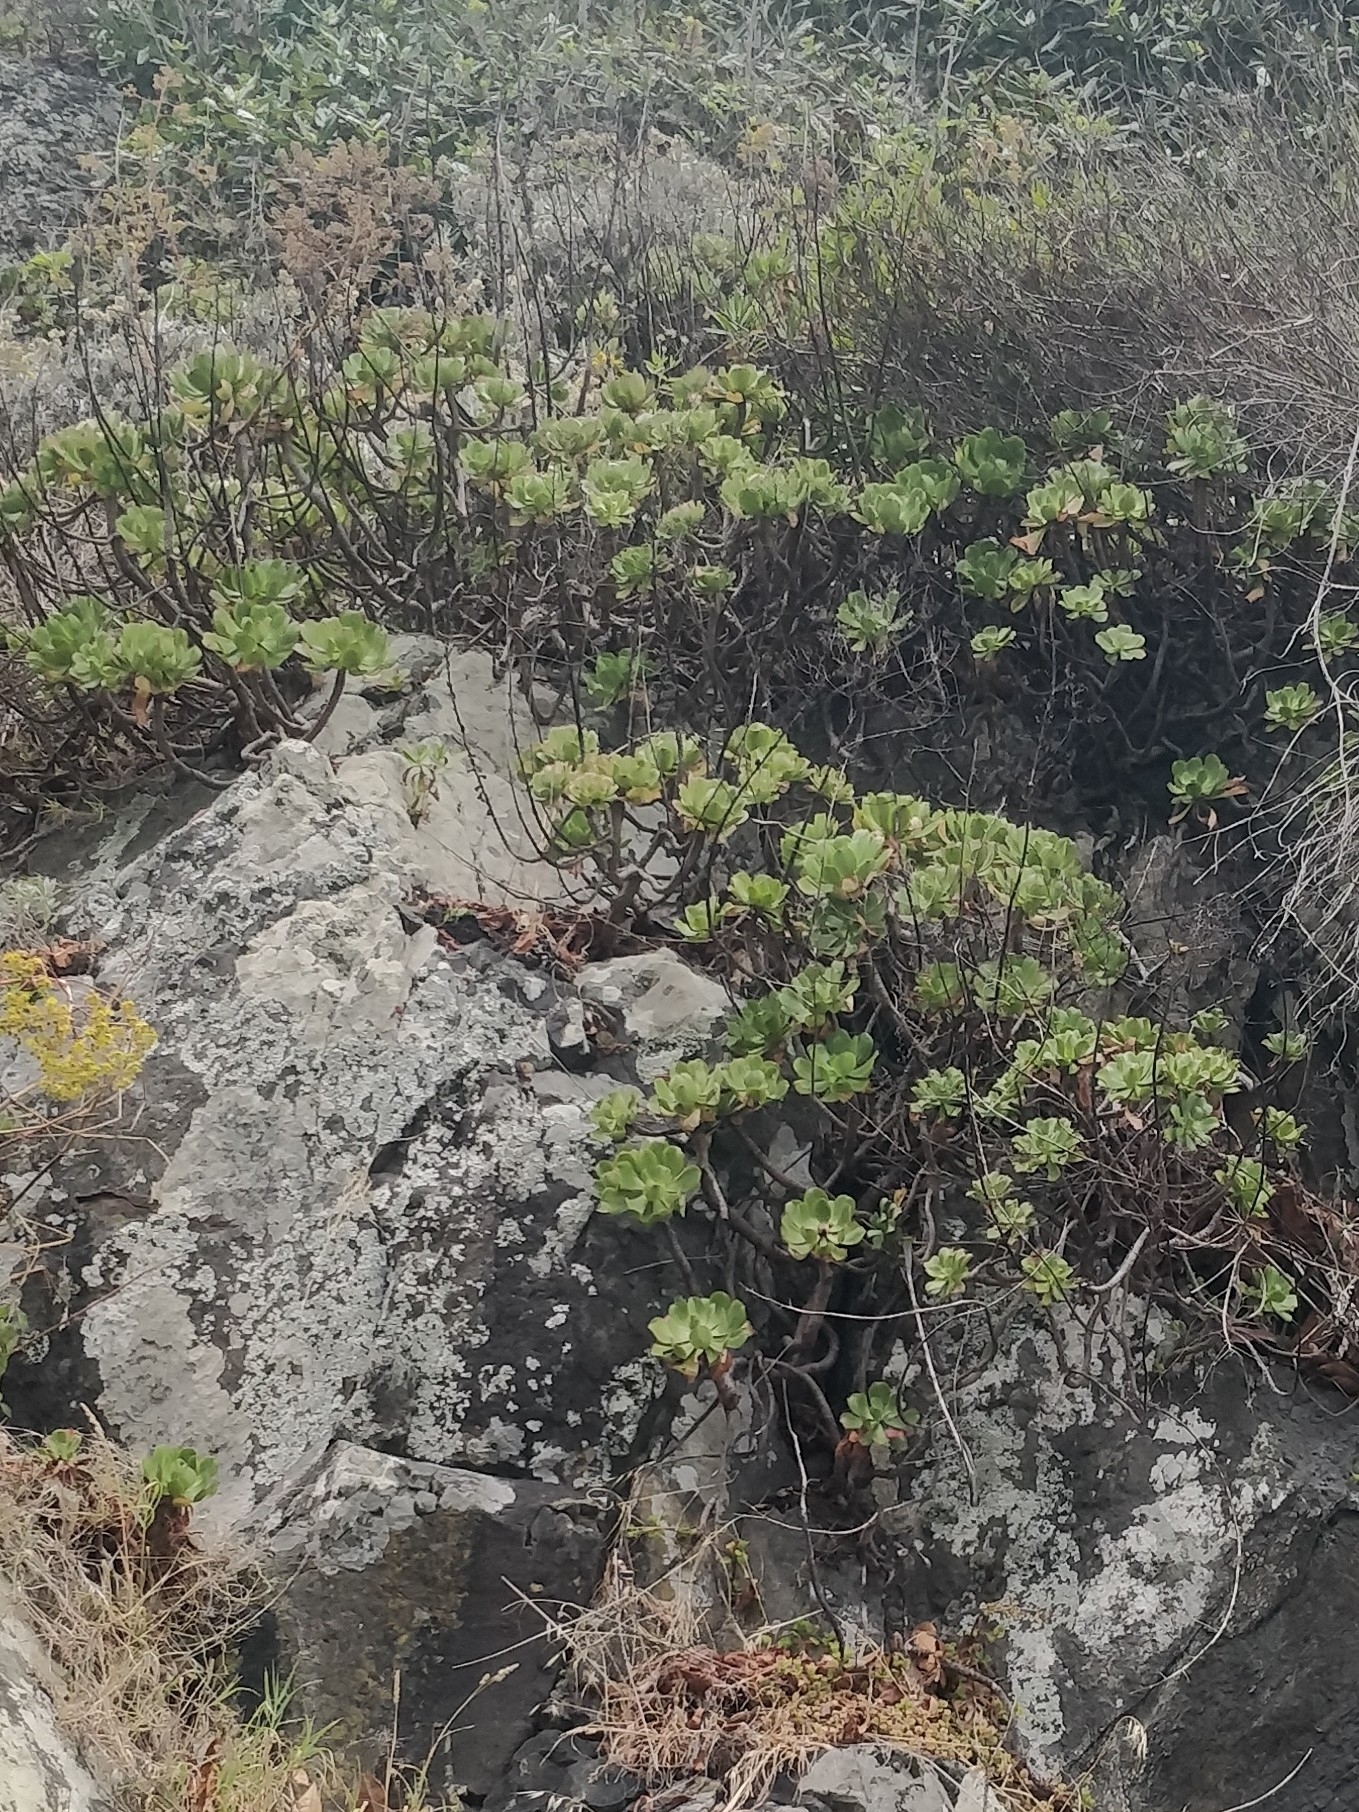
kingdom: Plantae
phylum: Tracheophyta
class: Magnoliopsida
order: Saxifragales
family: Crassulaceae
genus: Aeonium
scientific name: Aeonium glutinosum
